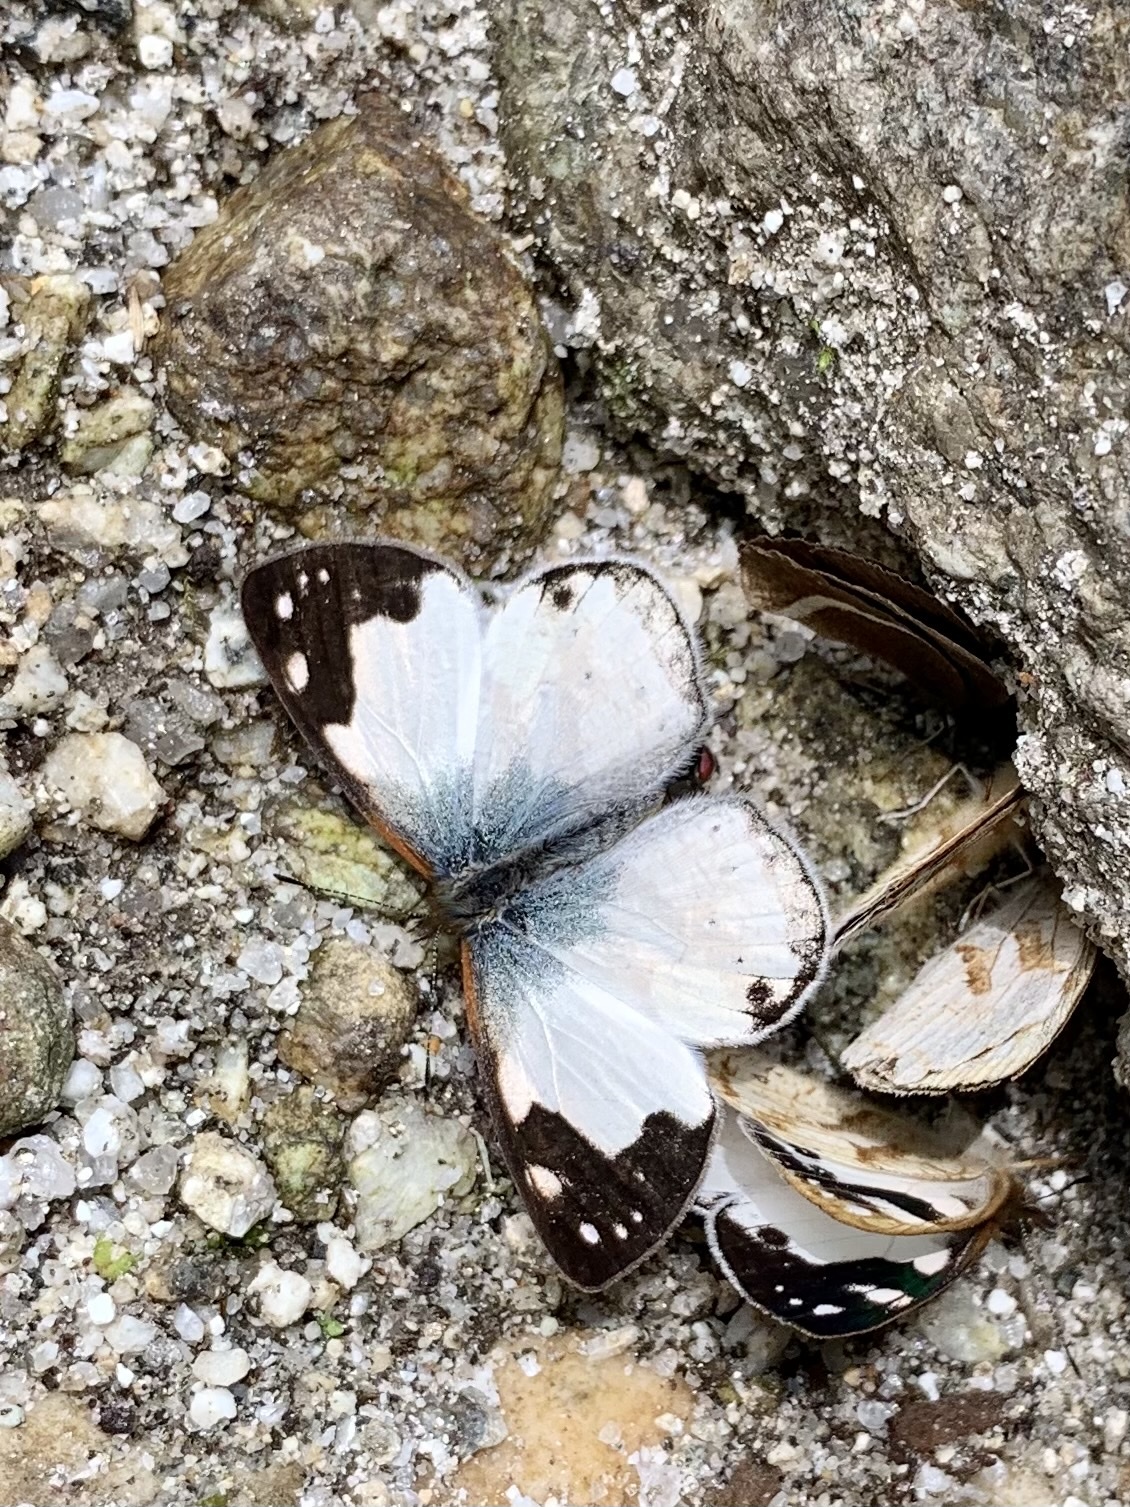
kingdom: Animalia
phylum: Arthropoda
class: Insecta
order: Lepidoptera
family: Nymphalidae
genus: Lymanopoda
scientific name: Lymanopoda shefteli
